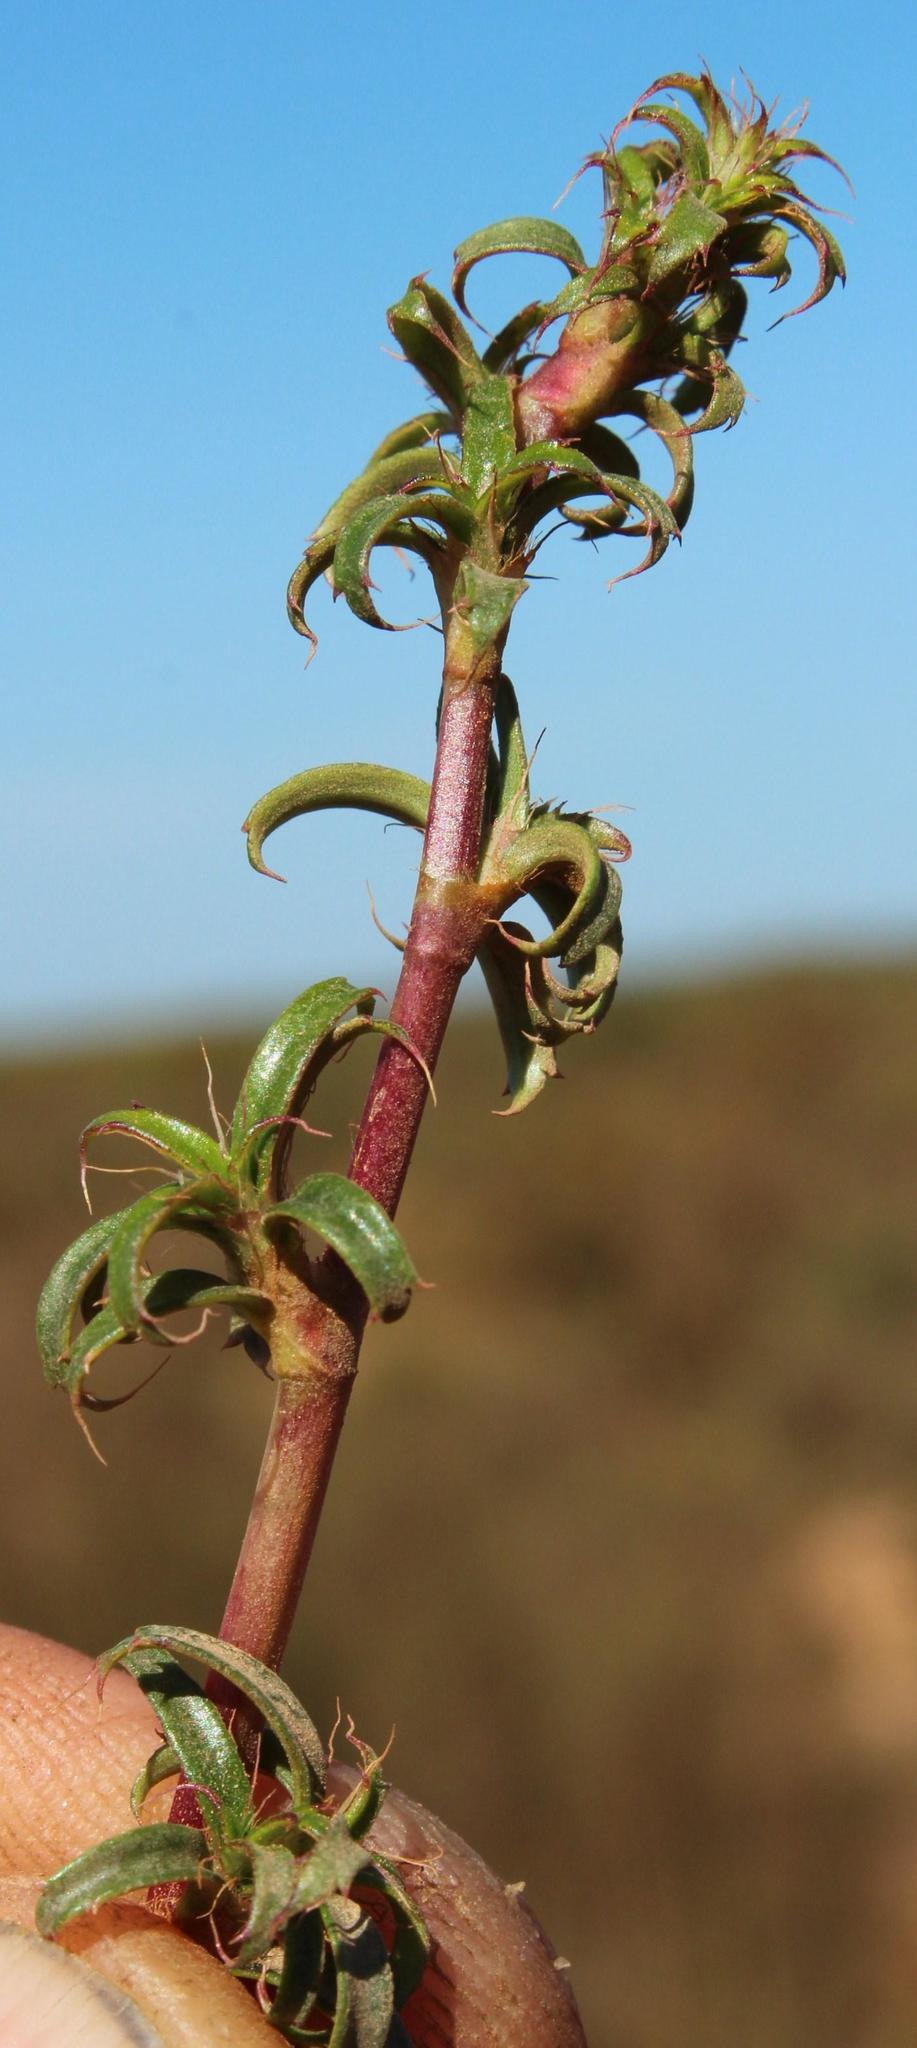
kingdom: Plantae
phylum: Tracheophyta
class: Magnoliopsida
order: Rosales
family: Rosaceae
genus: Cliffortia
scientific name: Cliffortia ferruginea
